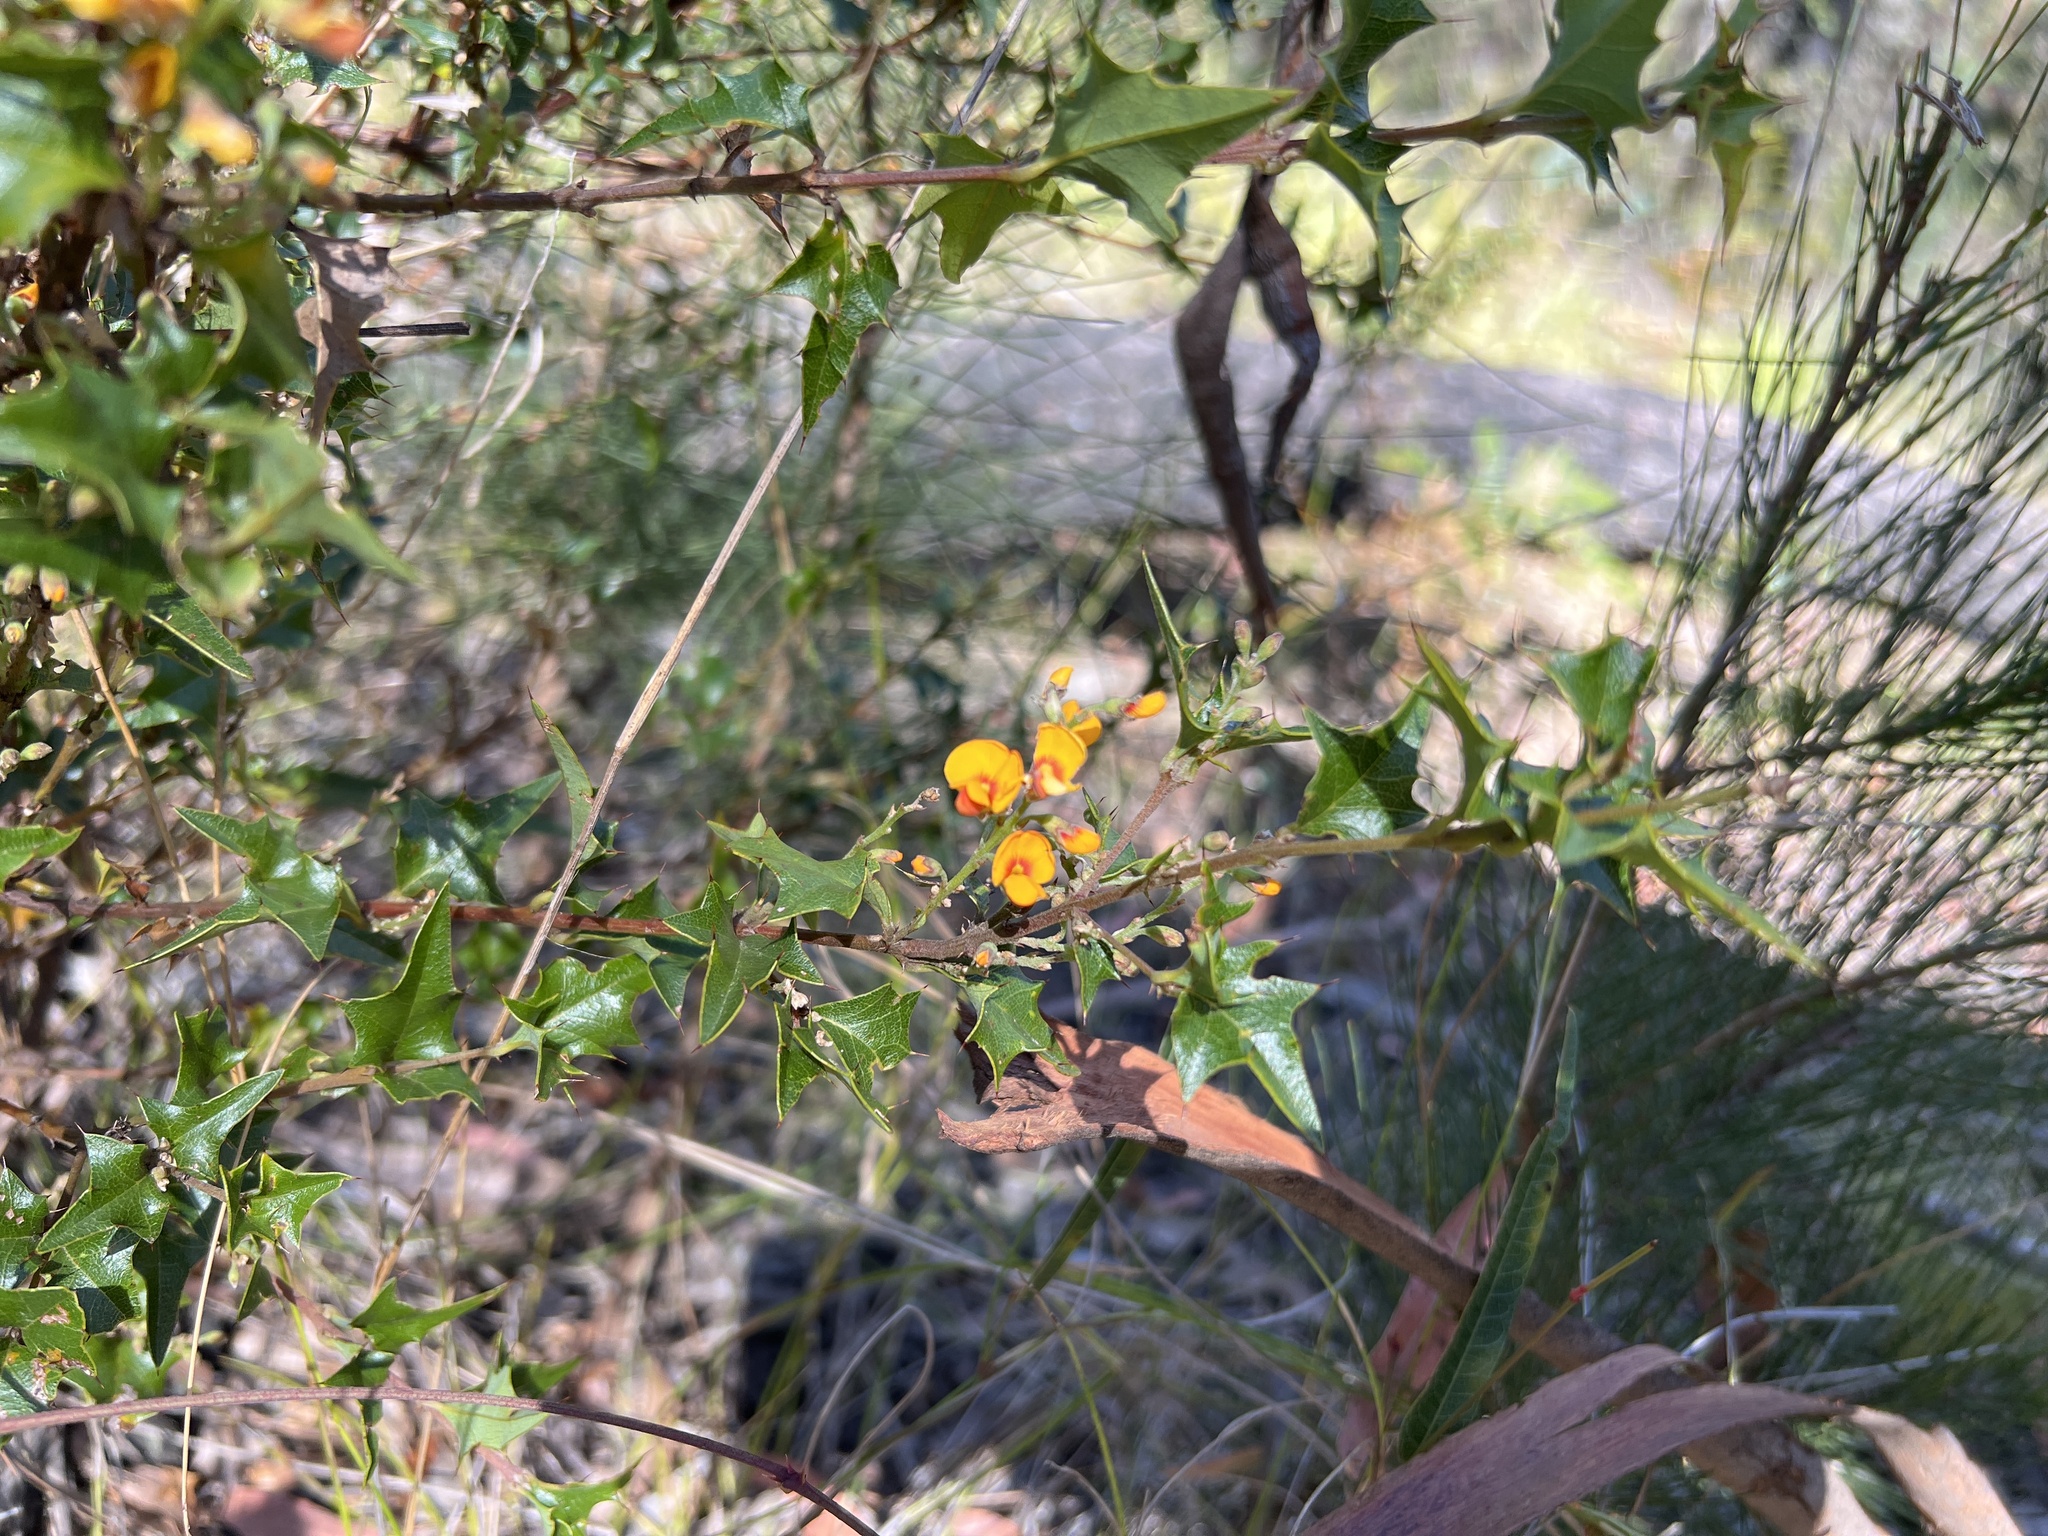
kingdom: Plantae
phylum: Tracheophyta
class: Magnoliopsida
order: Fabales
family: Fabaceae
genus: Podolobium
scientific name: Podolobium ilicifolium
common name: Native holly
